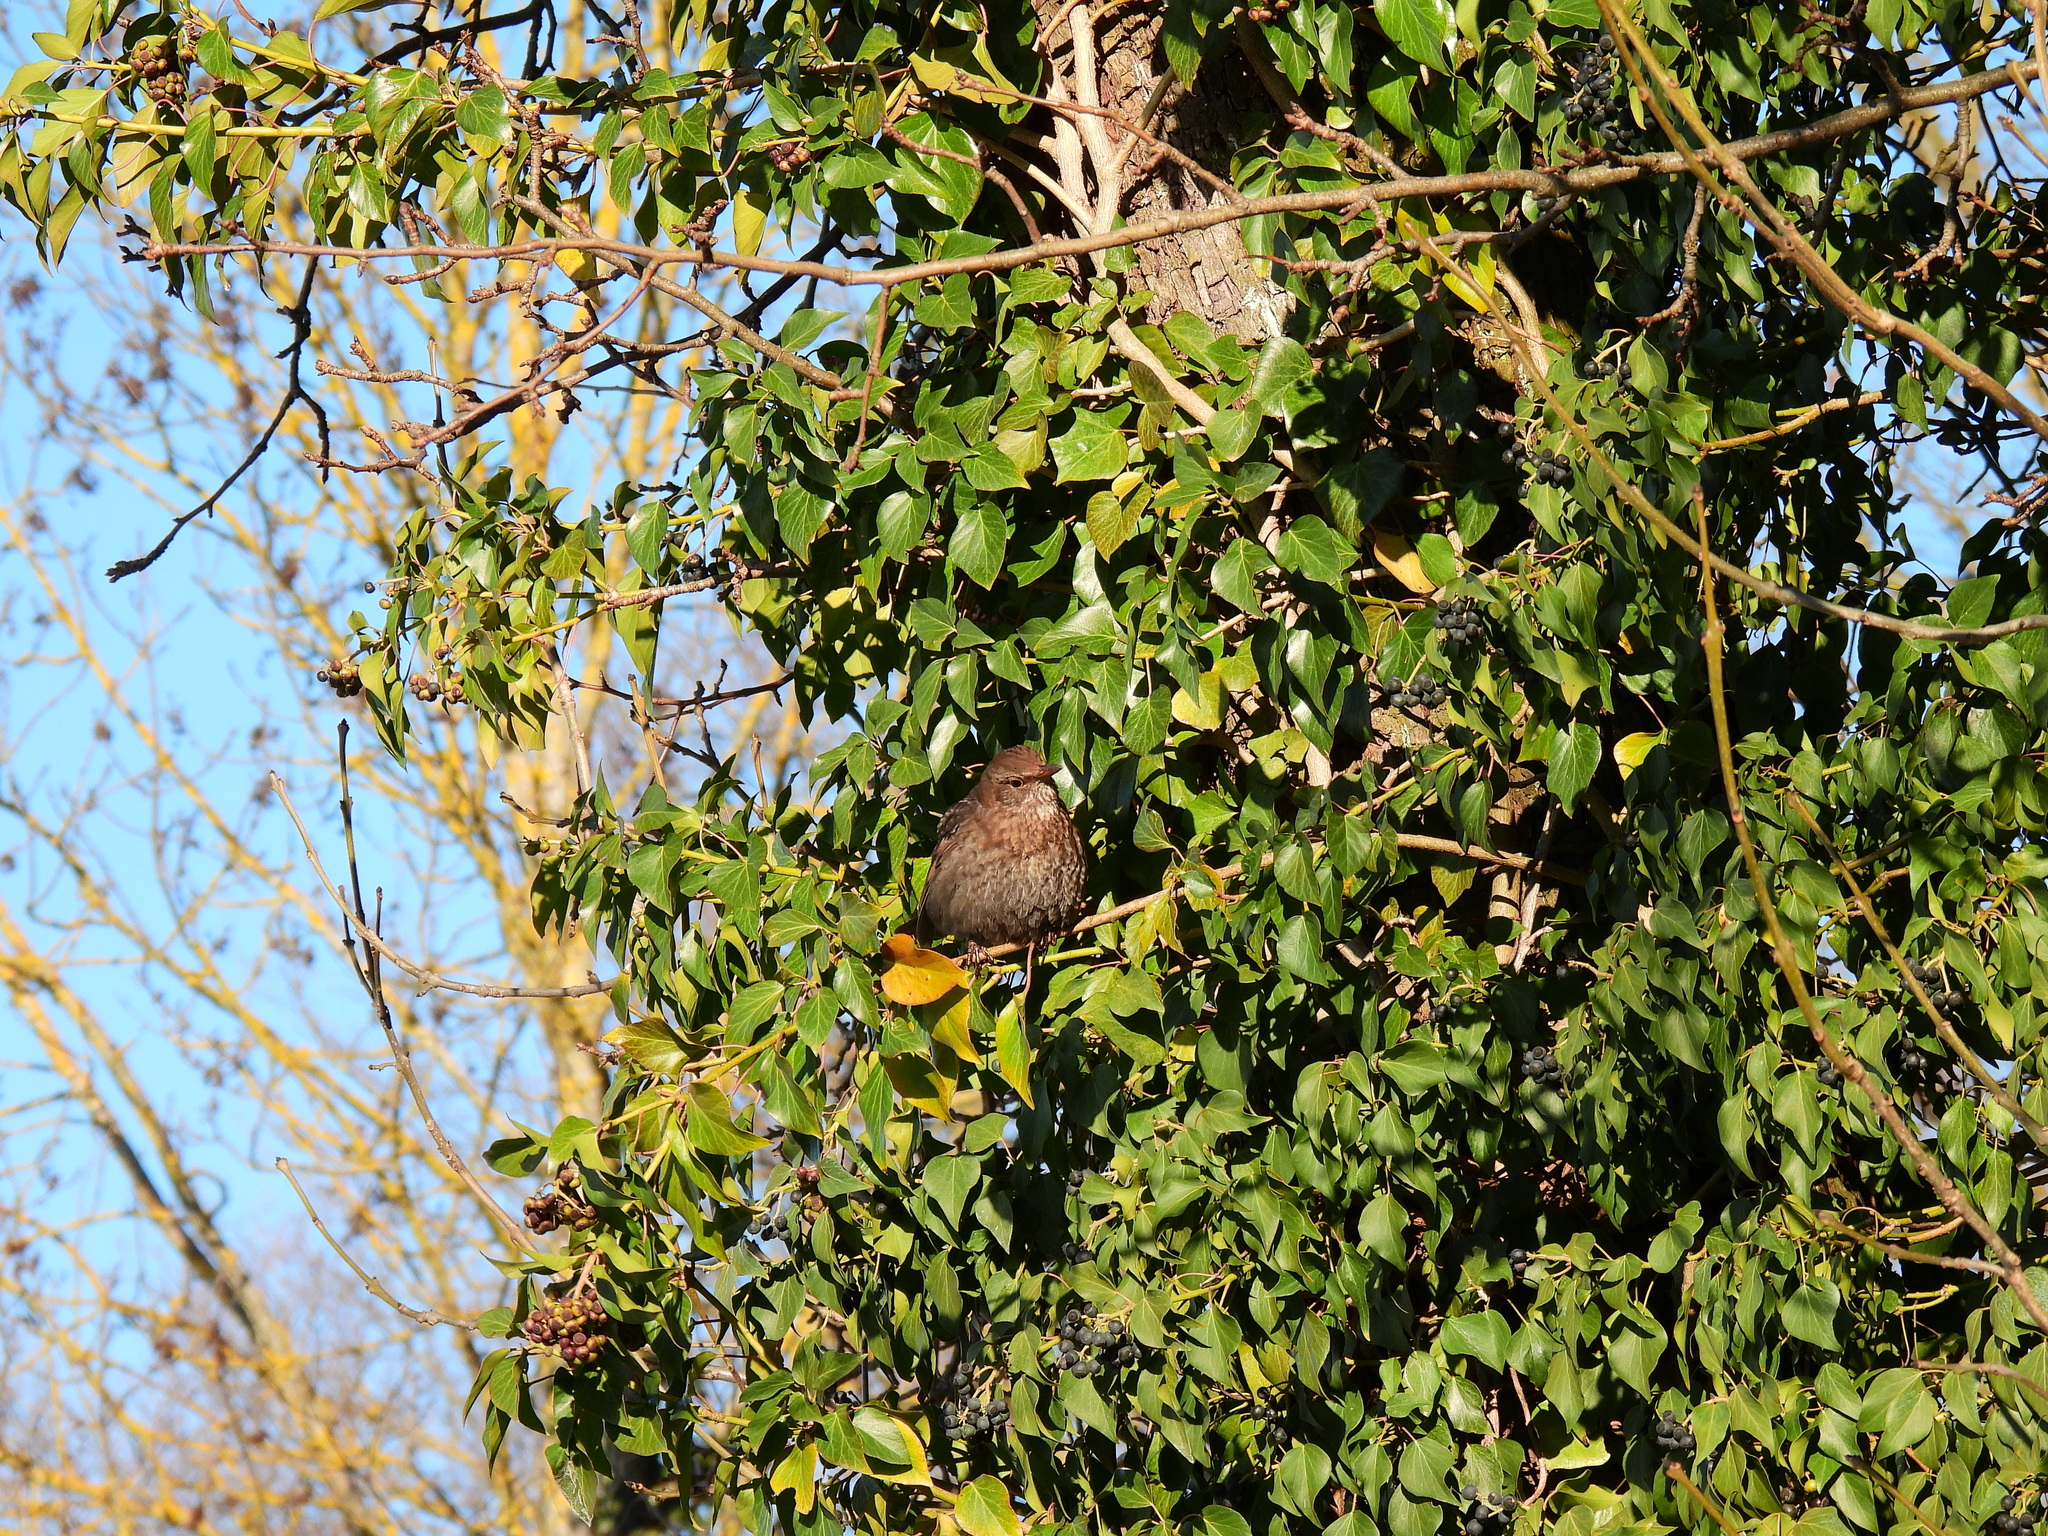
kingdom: Animalia
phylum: Chordata
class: Aves
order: Passeriformes
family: Turdidae
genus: Turdus
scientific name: Turdus merula
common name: Common blackbird
